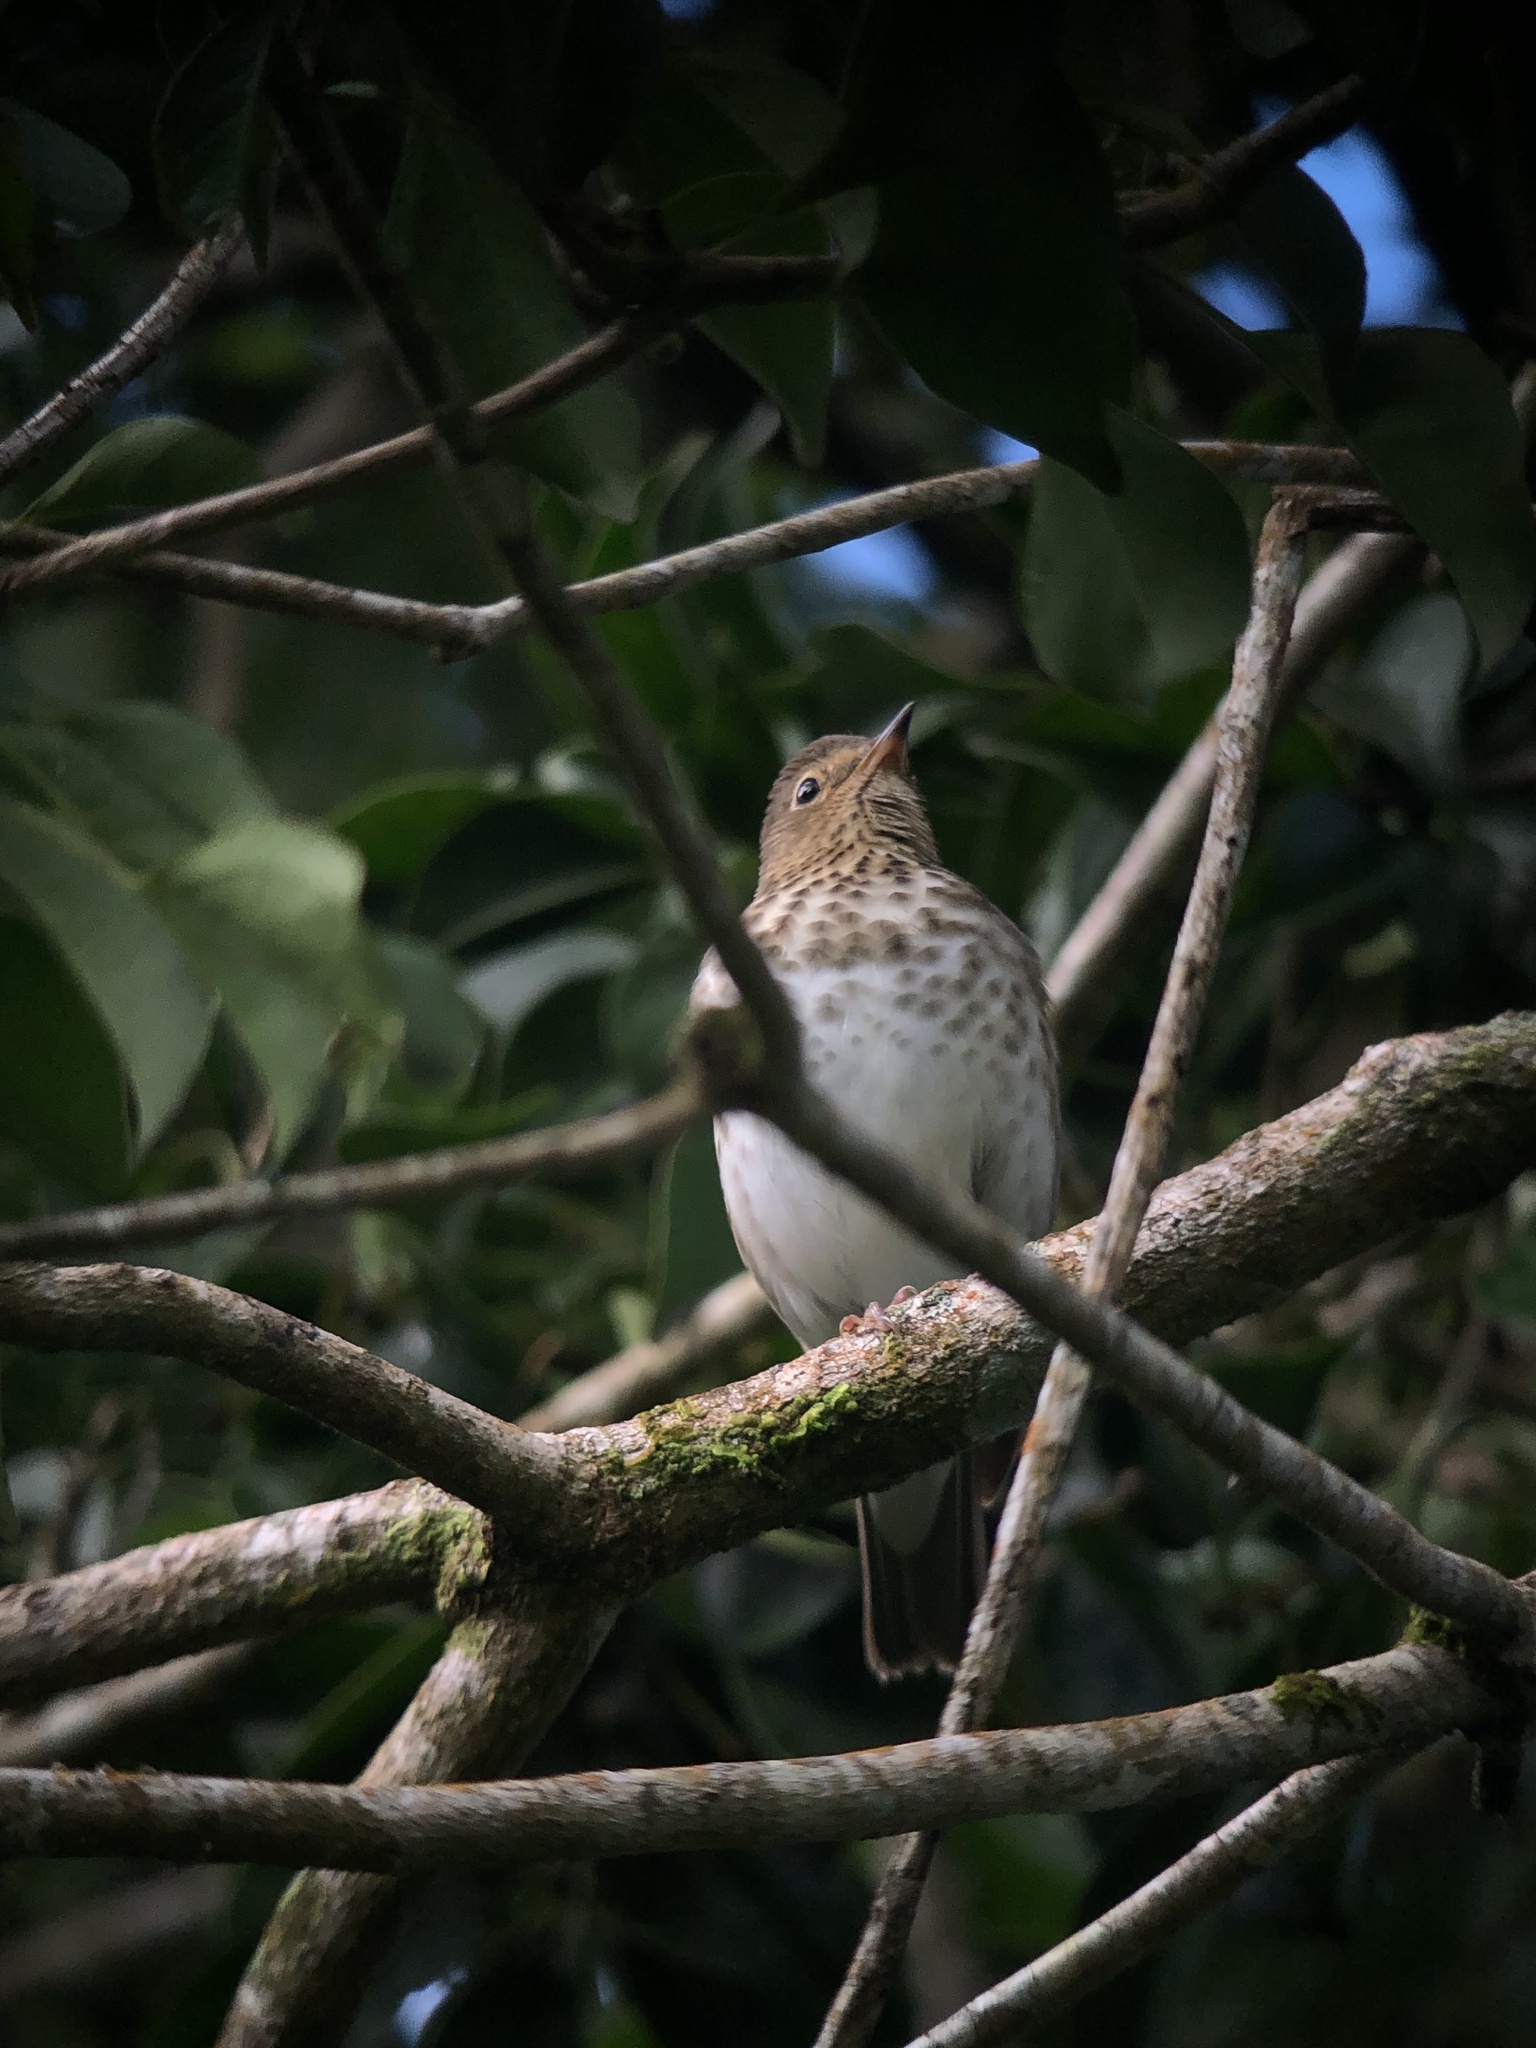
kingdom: Animalia
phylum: Chordata
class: Aves
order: Passeriformes
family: Turdidae
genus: Catharus
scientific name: Catharus ustulatus
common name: Swainson's thrush
